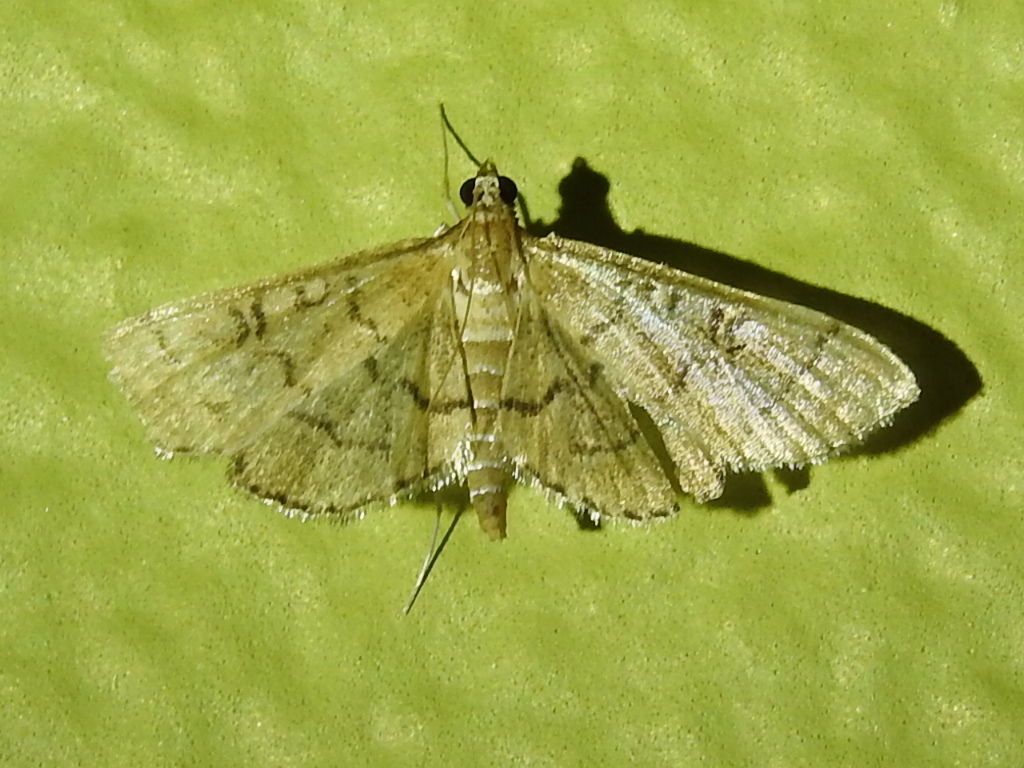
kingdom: Animalia
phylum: Arthropoda
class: Insecta
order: Lepidoptera
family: Crambidae
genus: Lamprosema
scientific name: Lamprosema Blepharomastix ranalis
